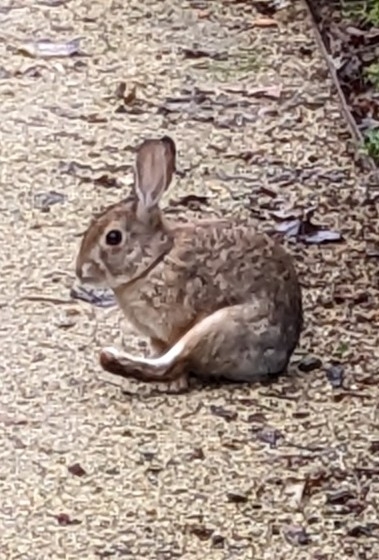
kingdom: Animalia
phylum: Chordata
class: Mammalia
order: Lagomorpha
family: Leporidae
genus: Sylvilagus
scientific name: Sylvilagus audubonii
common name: Desert cottontail
